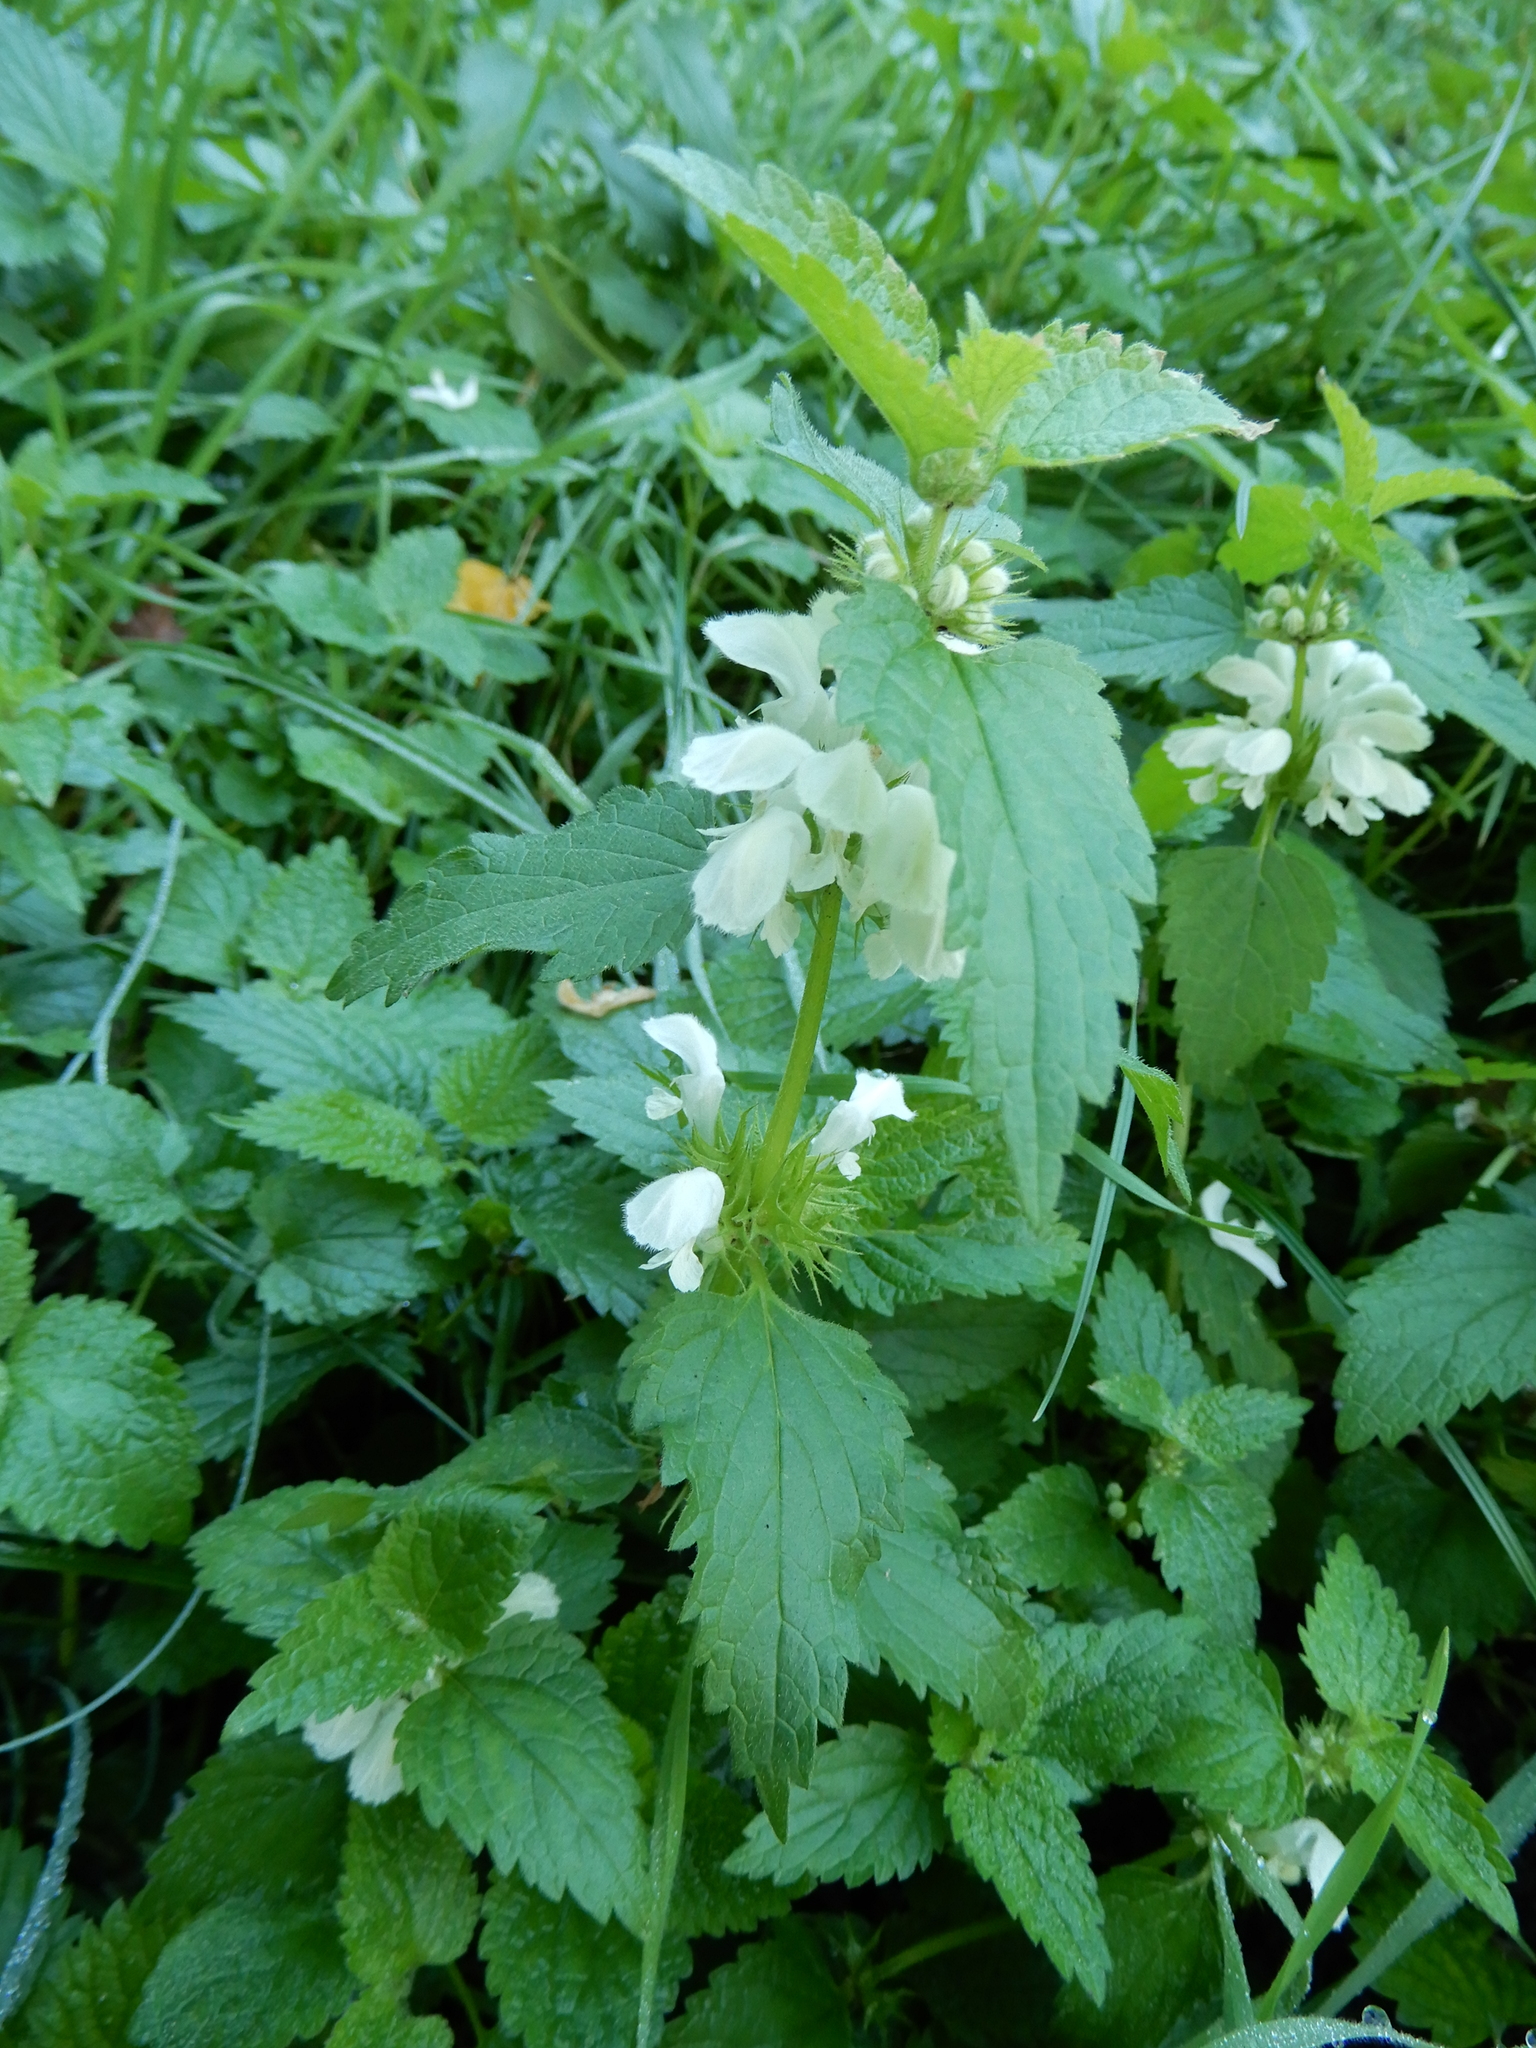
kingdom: Plantae
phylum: Tracheophyta
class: Magnoliopsida
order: Lamiales
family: Lamiaceae
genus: Lamium
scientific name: Lamium album
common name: White dead-nettle
